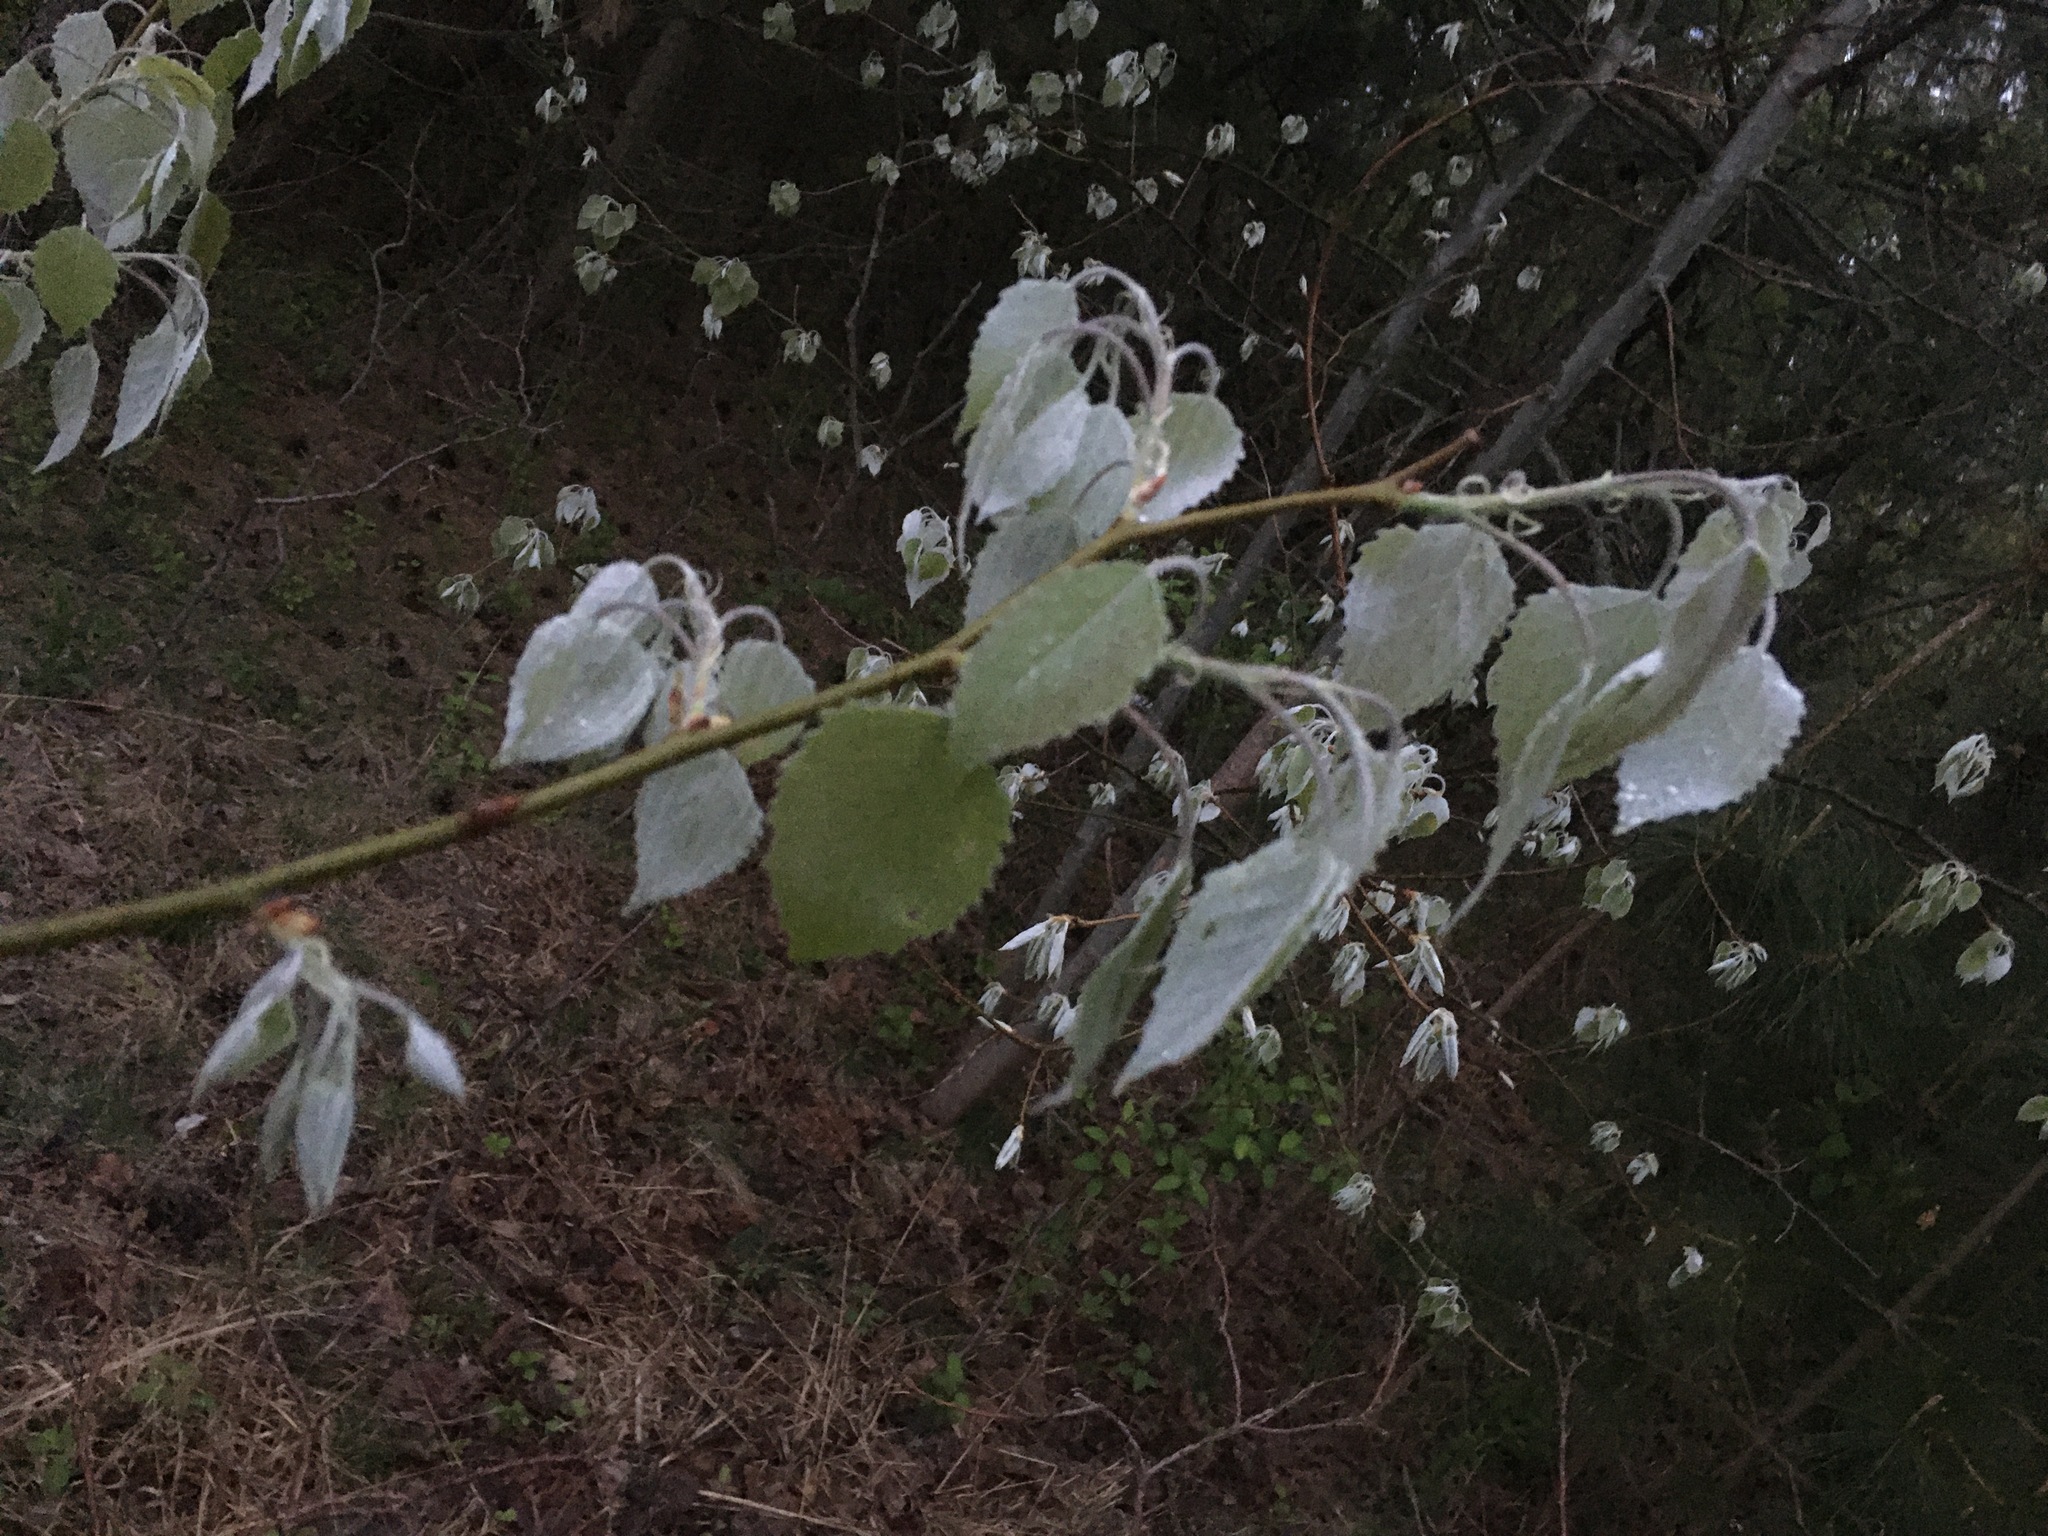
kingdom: Plantae
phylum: Tracheophyta
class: Magnoliopsida
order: Malpighiales
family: Salicaceae
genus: Populus
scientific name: Populus grandidentata
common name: Bigtooth aspen
